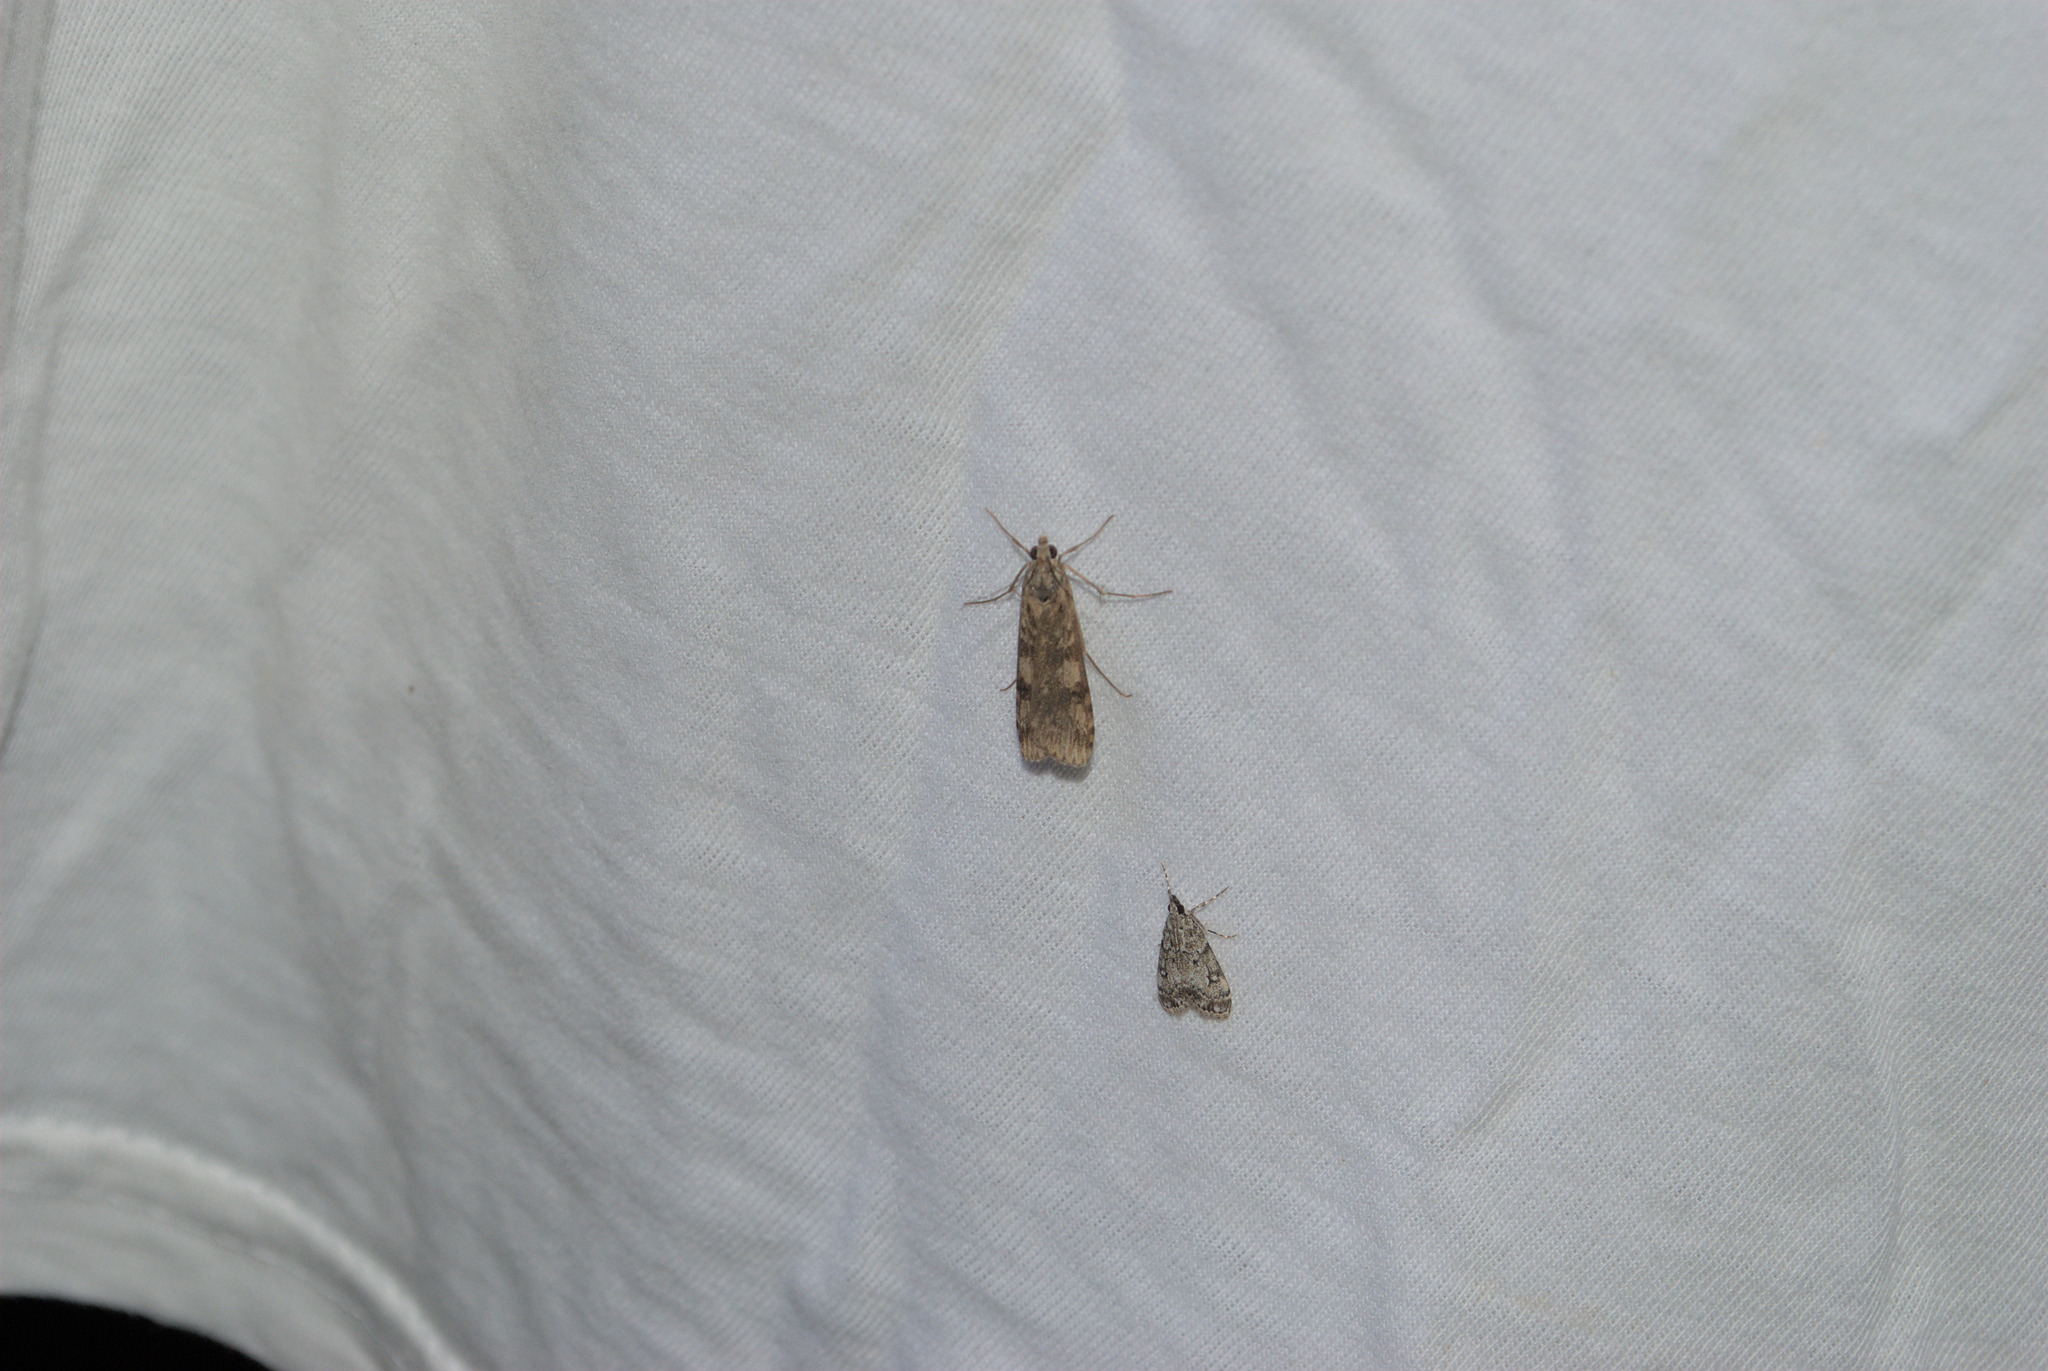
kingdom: Animalia
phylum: Arthropoda
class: Insecta
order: Lepidoptera
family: Crambidae
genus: Nomophila
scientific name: Nomophila noctuella
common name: Rush veneer
